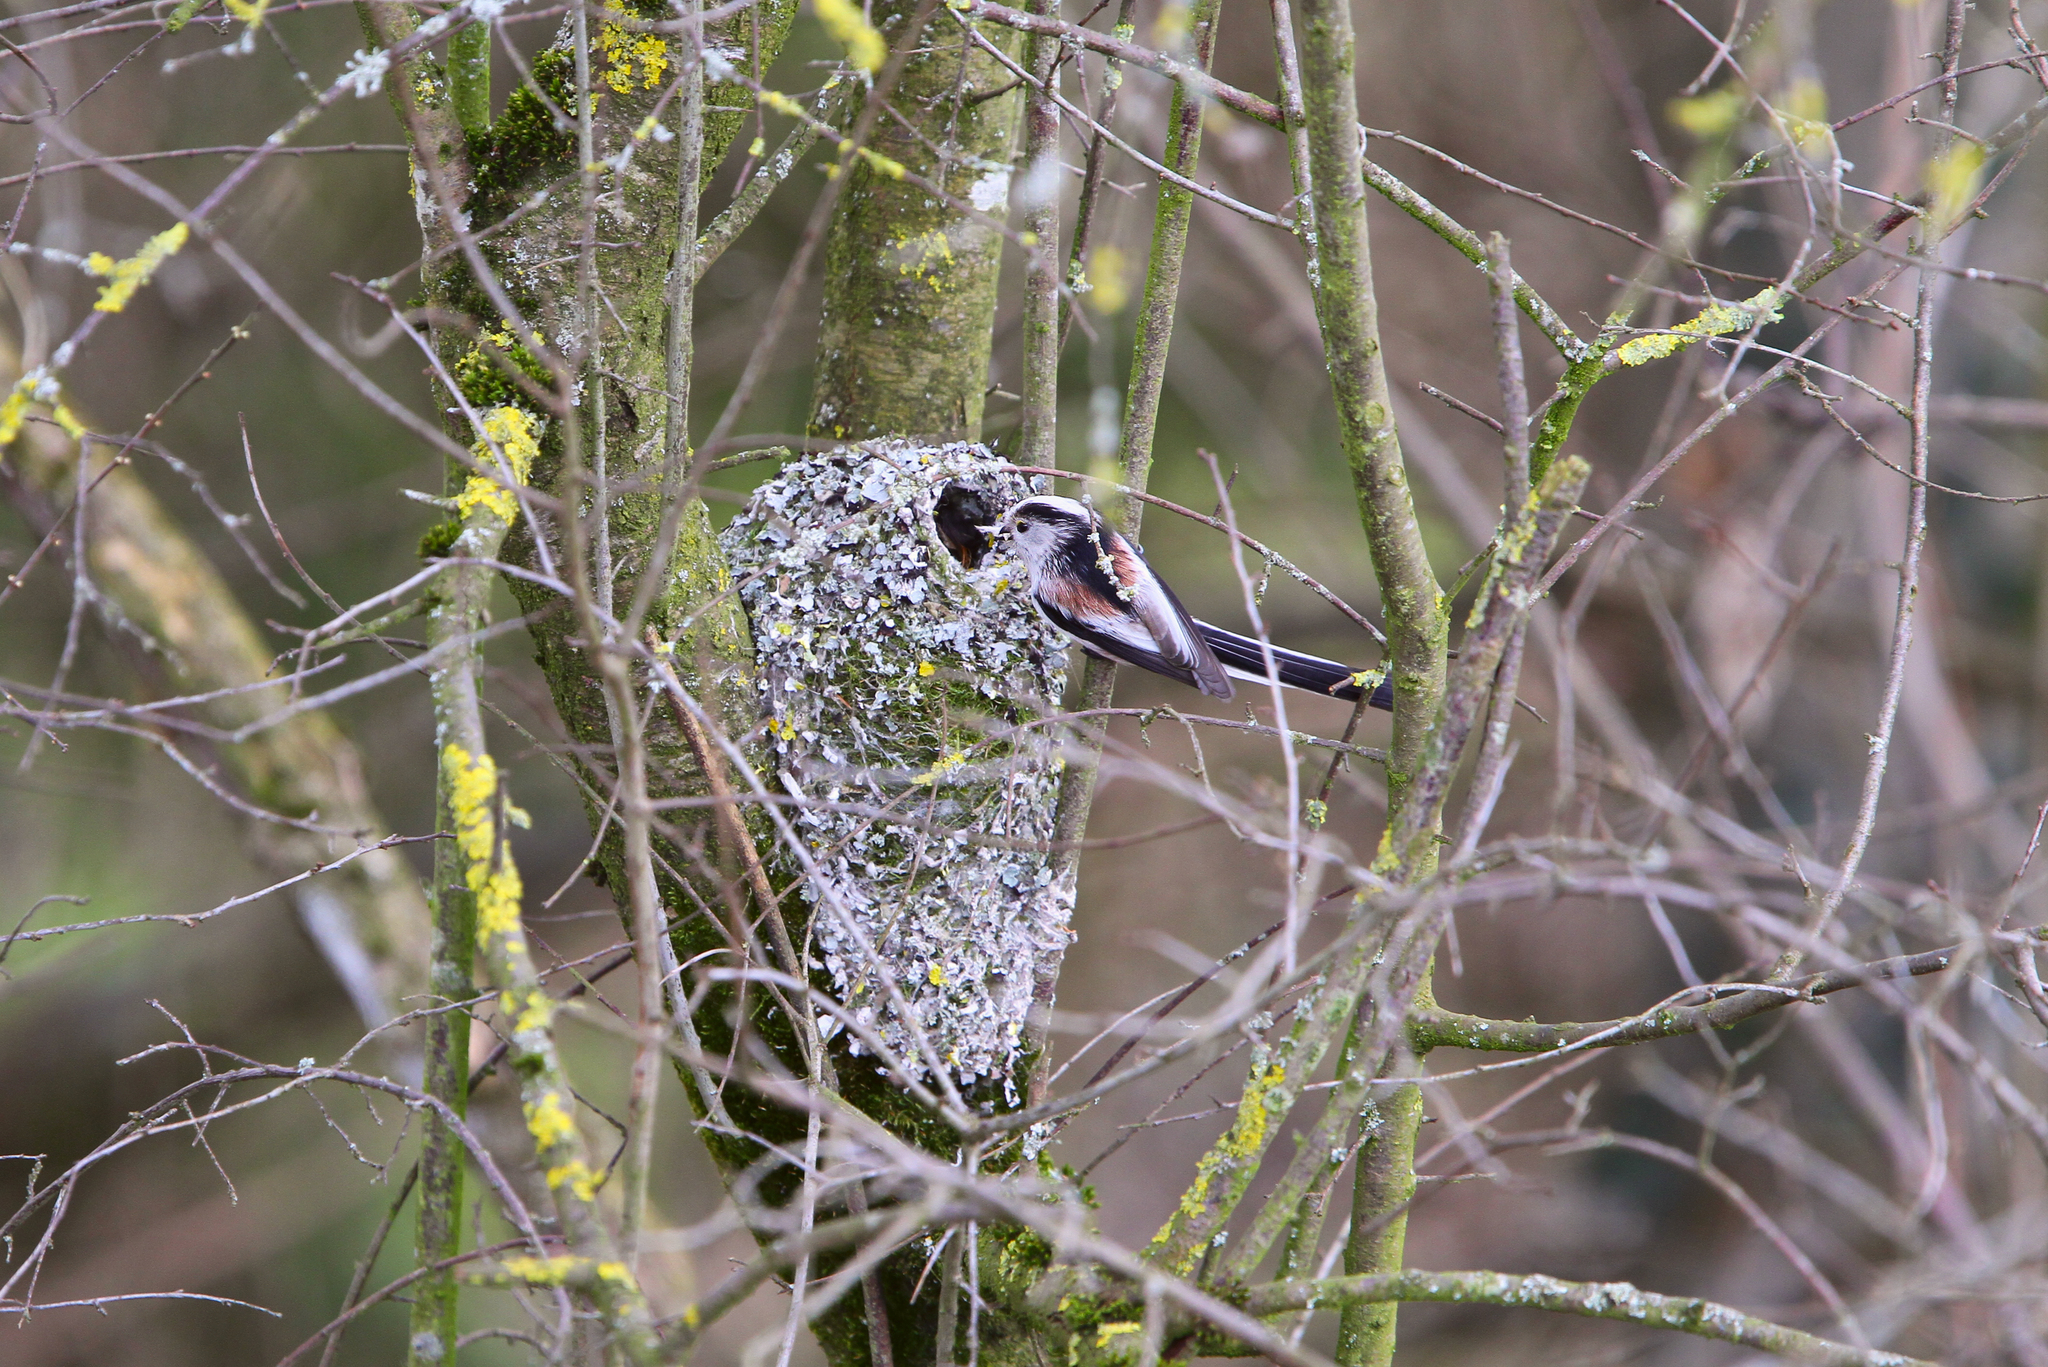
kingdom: Animalia
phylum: Chordata
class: Aves
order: Passeriformes
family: Aegithalidae
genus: Aegithalos
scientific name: Aegithalos caudatus
